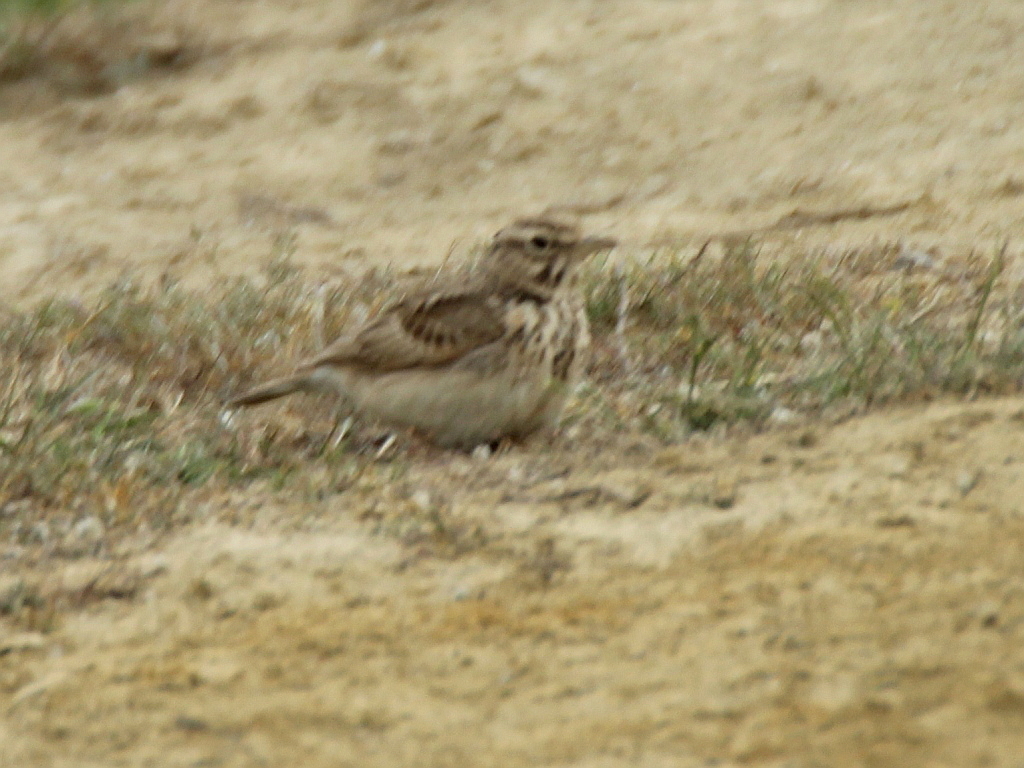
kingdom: Animalia
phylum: Chordata
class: Aves
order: Passeriformes
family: Alaudidae
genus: Galerida
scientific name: Galerida cristata
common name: Crested lark
